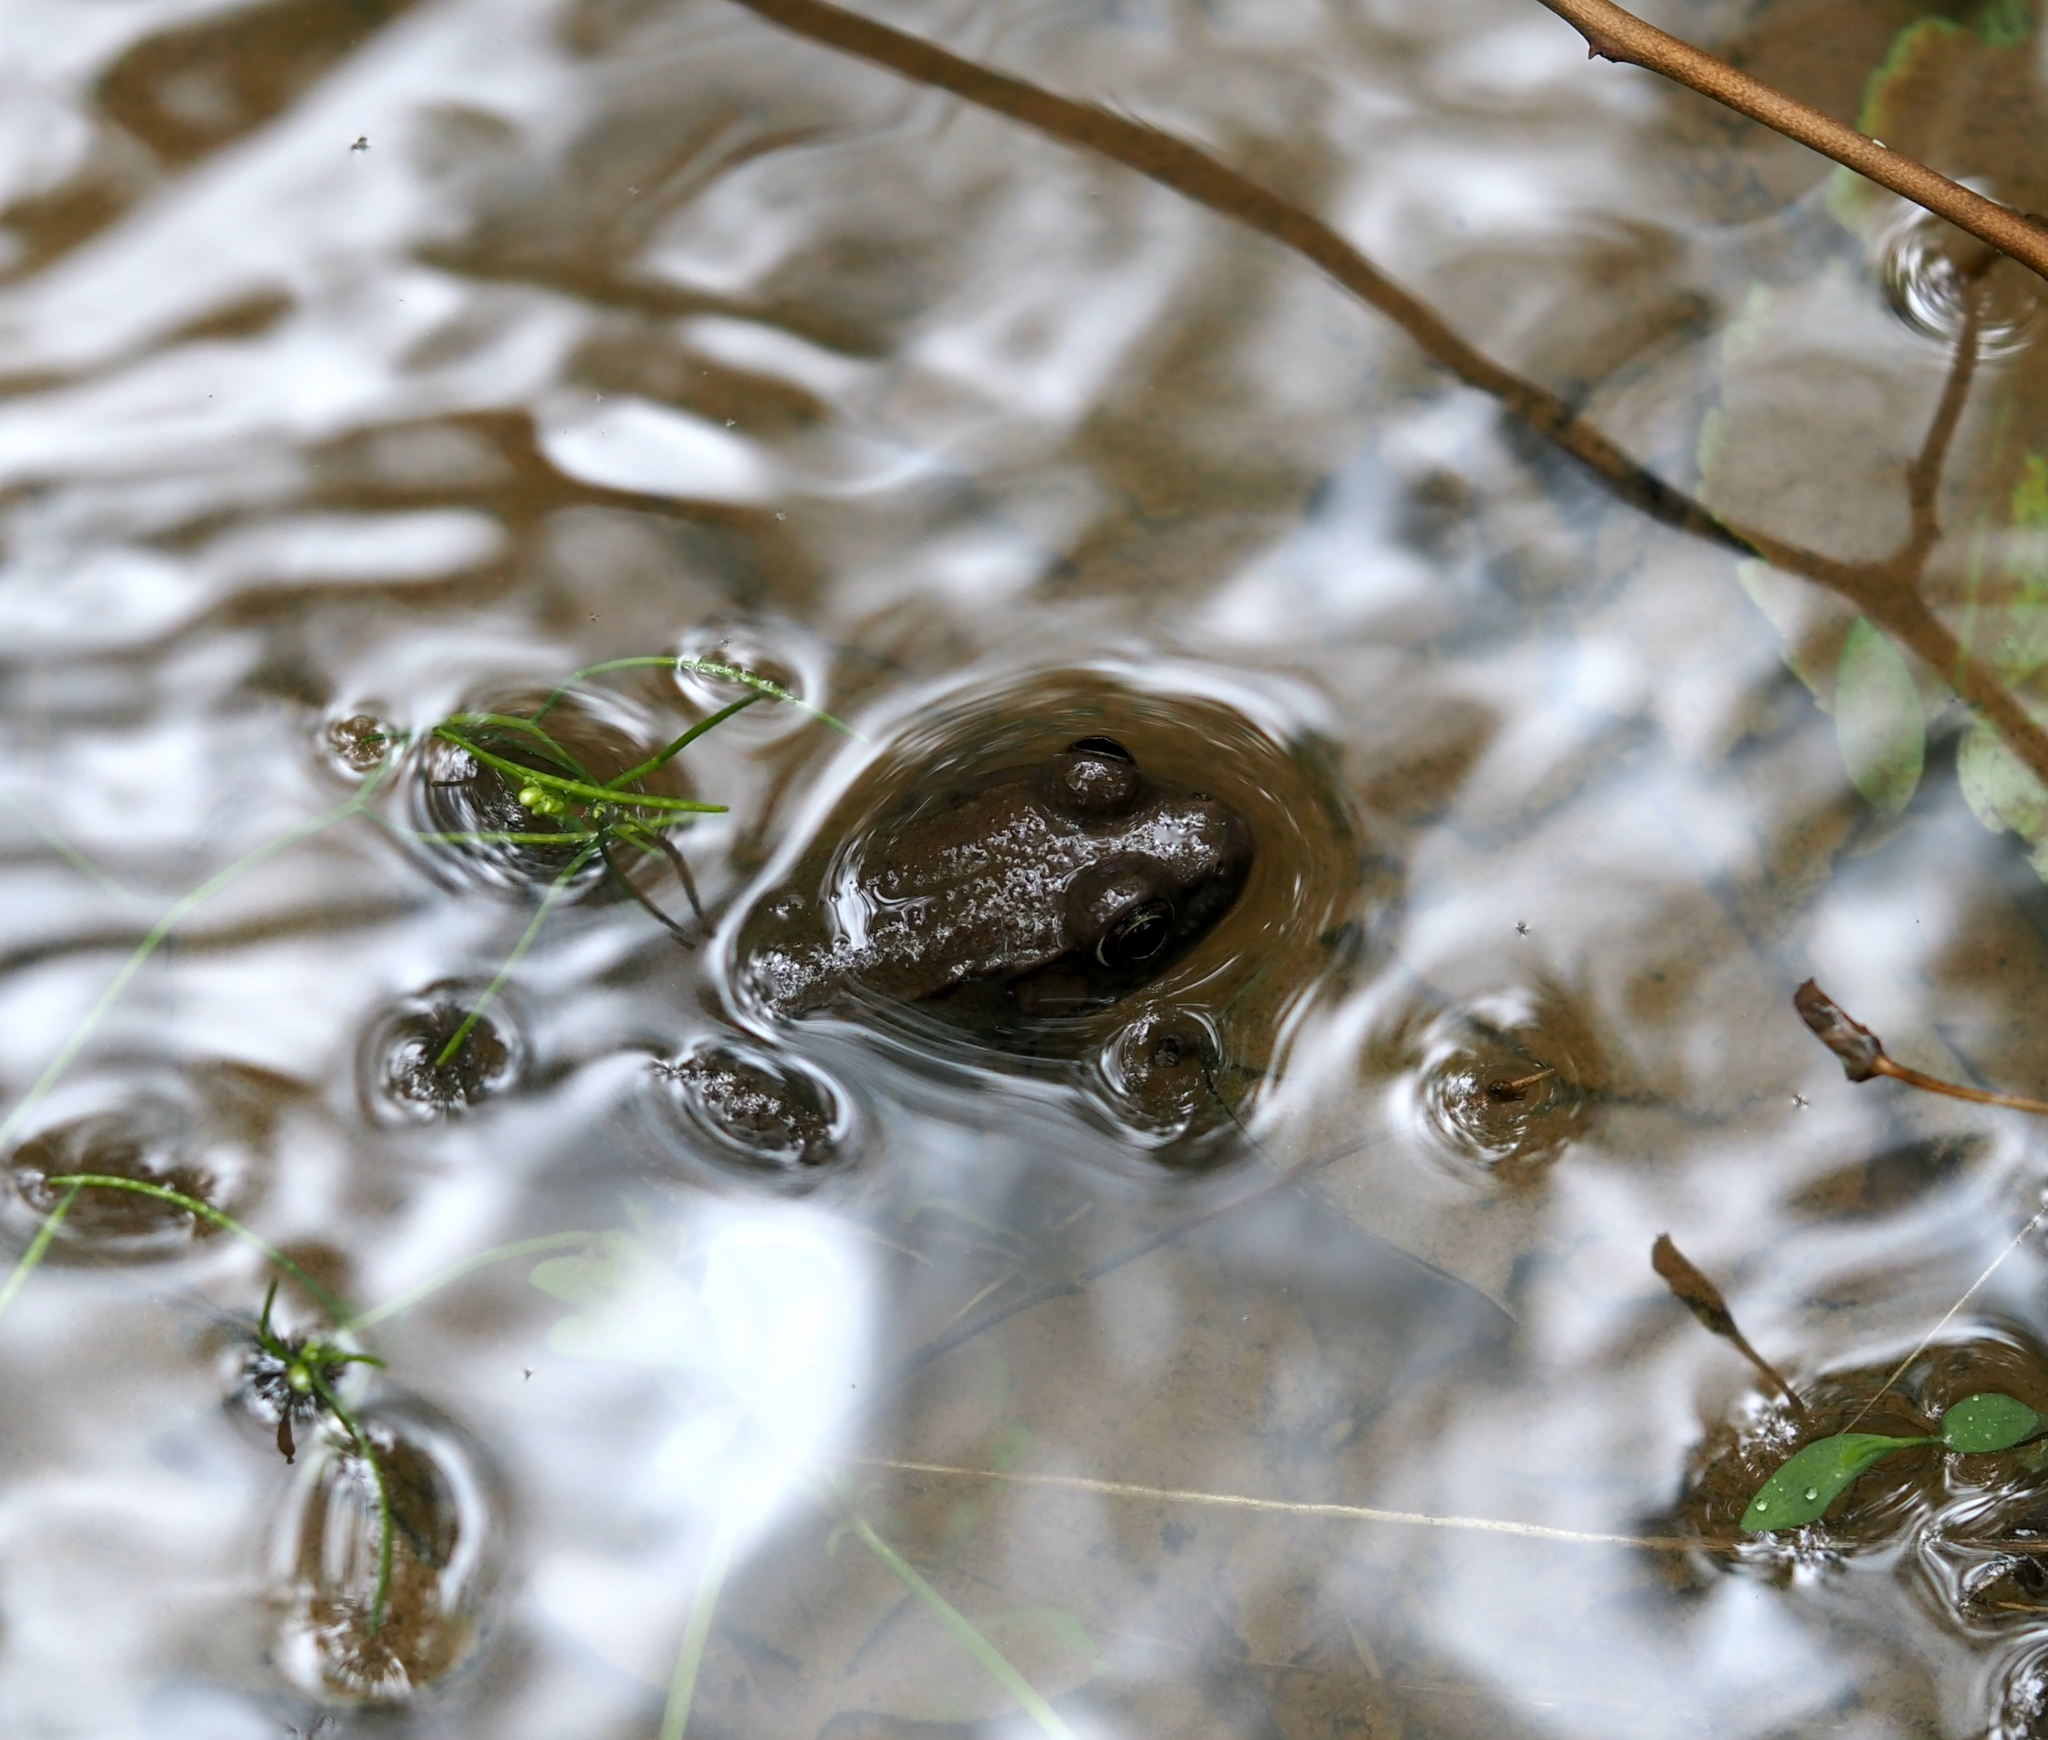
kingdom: Animalia
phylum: Chordata
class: Amphibia
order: Anura
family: Ranidae
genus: Lithobates
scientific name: Lithobates clamitans
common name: Green frog
